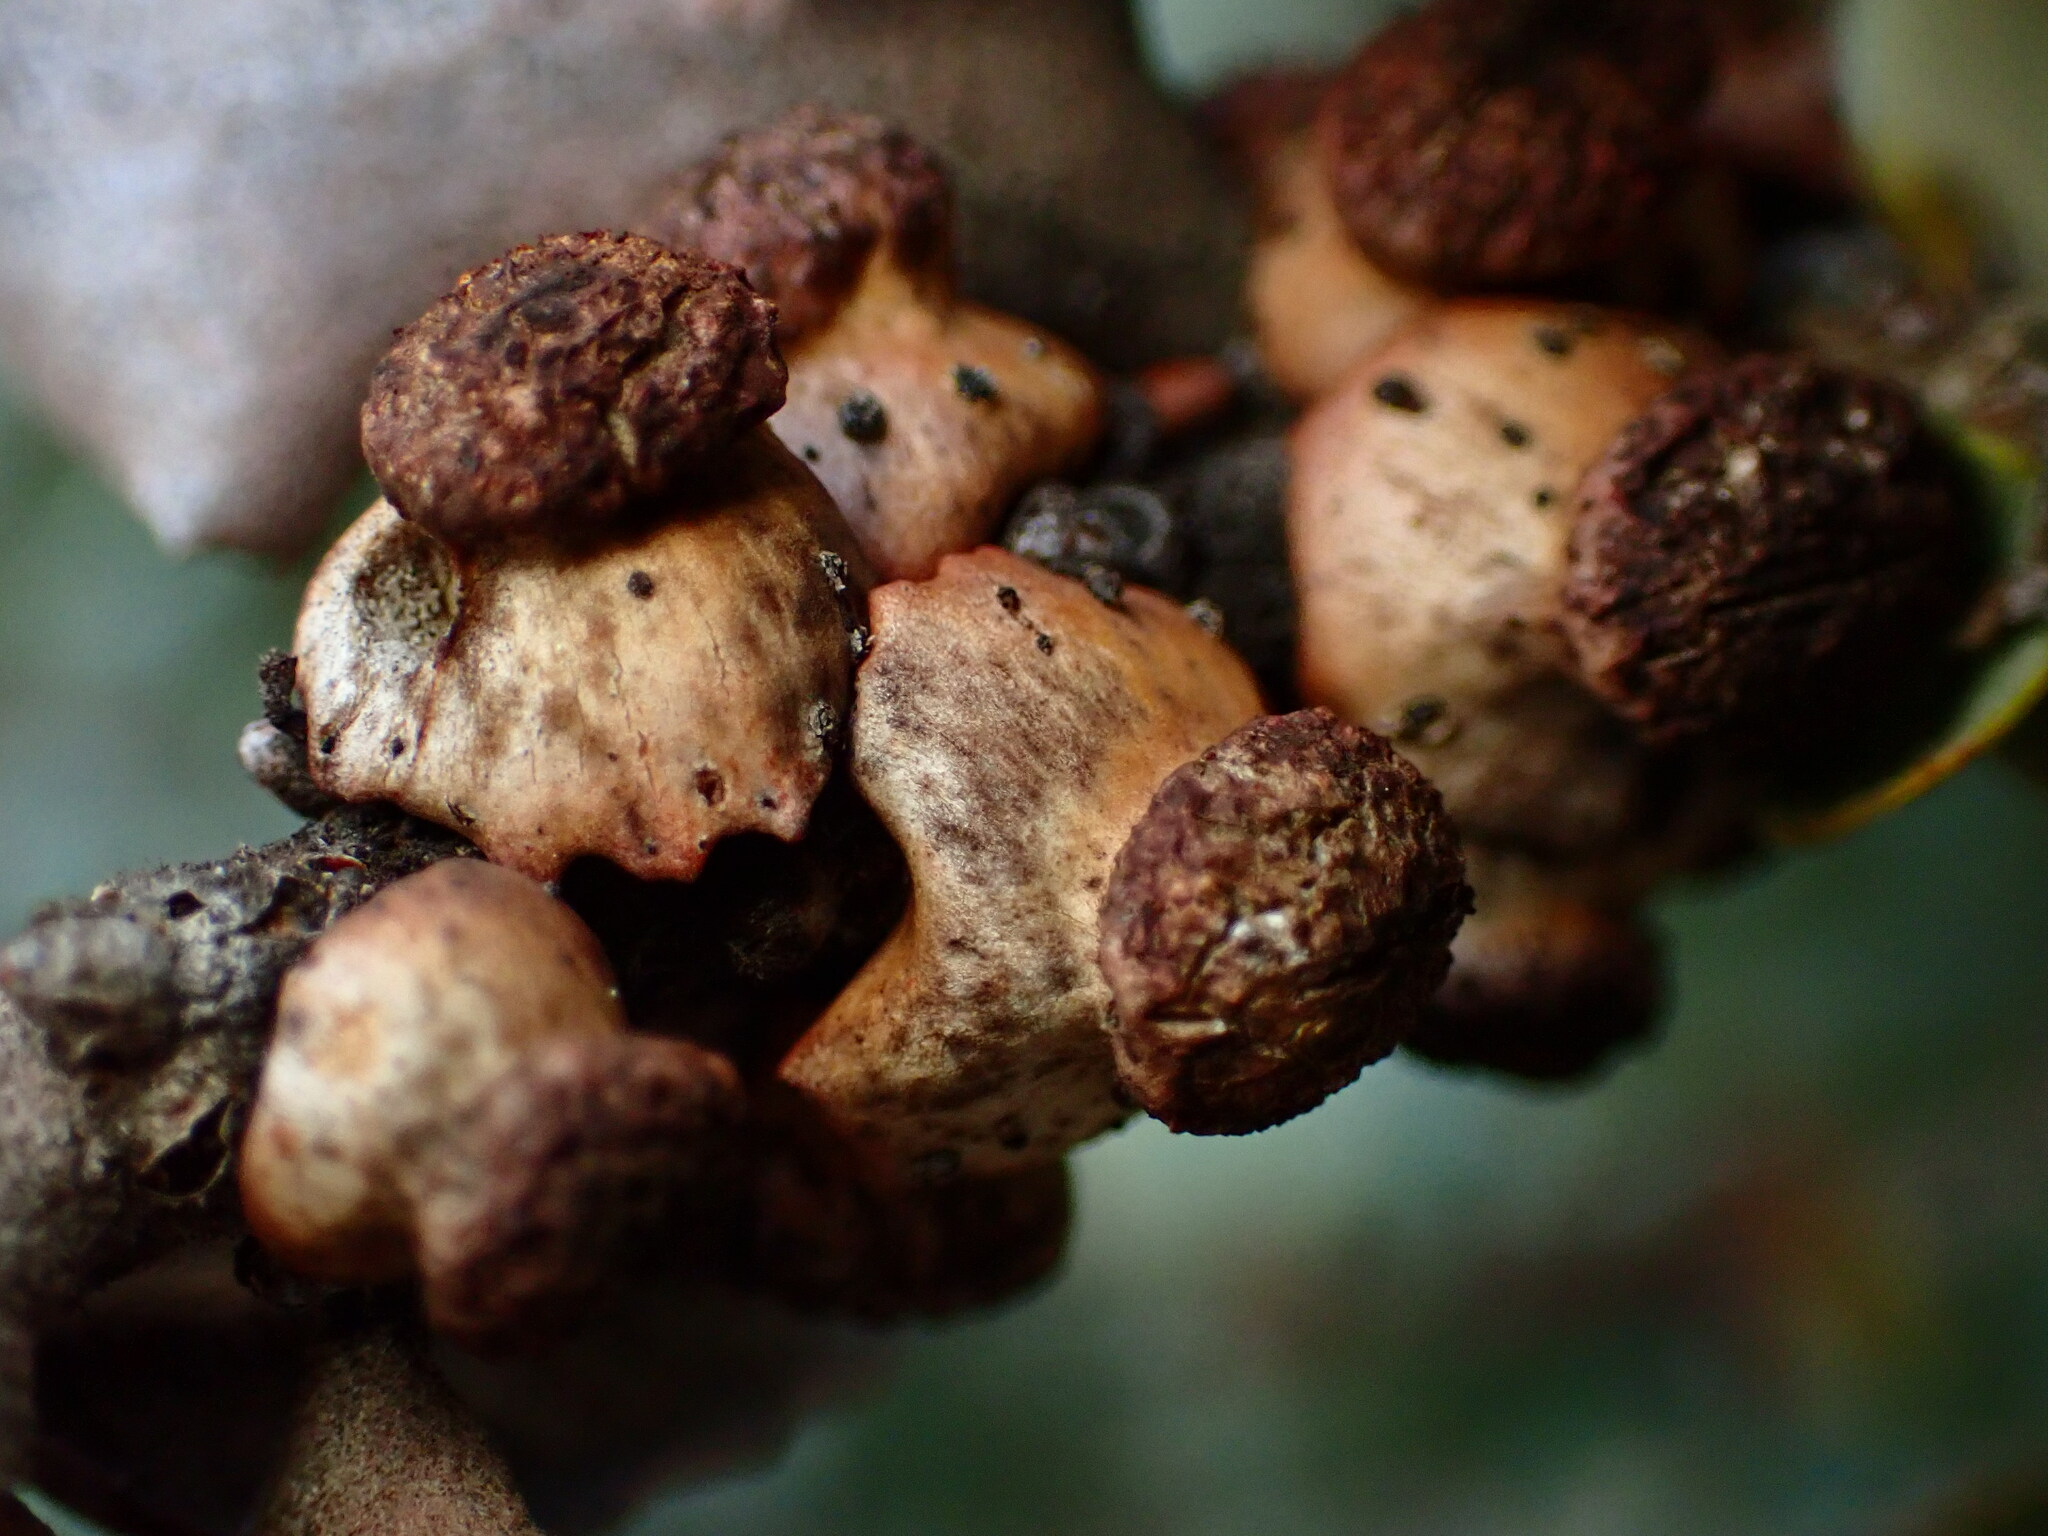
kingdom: Animalia
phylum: Arthropoda
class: Insecta
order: Hymenoptera
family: Cynipidae
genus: Disholcaspis
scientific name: Disholcaspis prehensa
